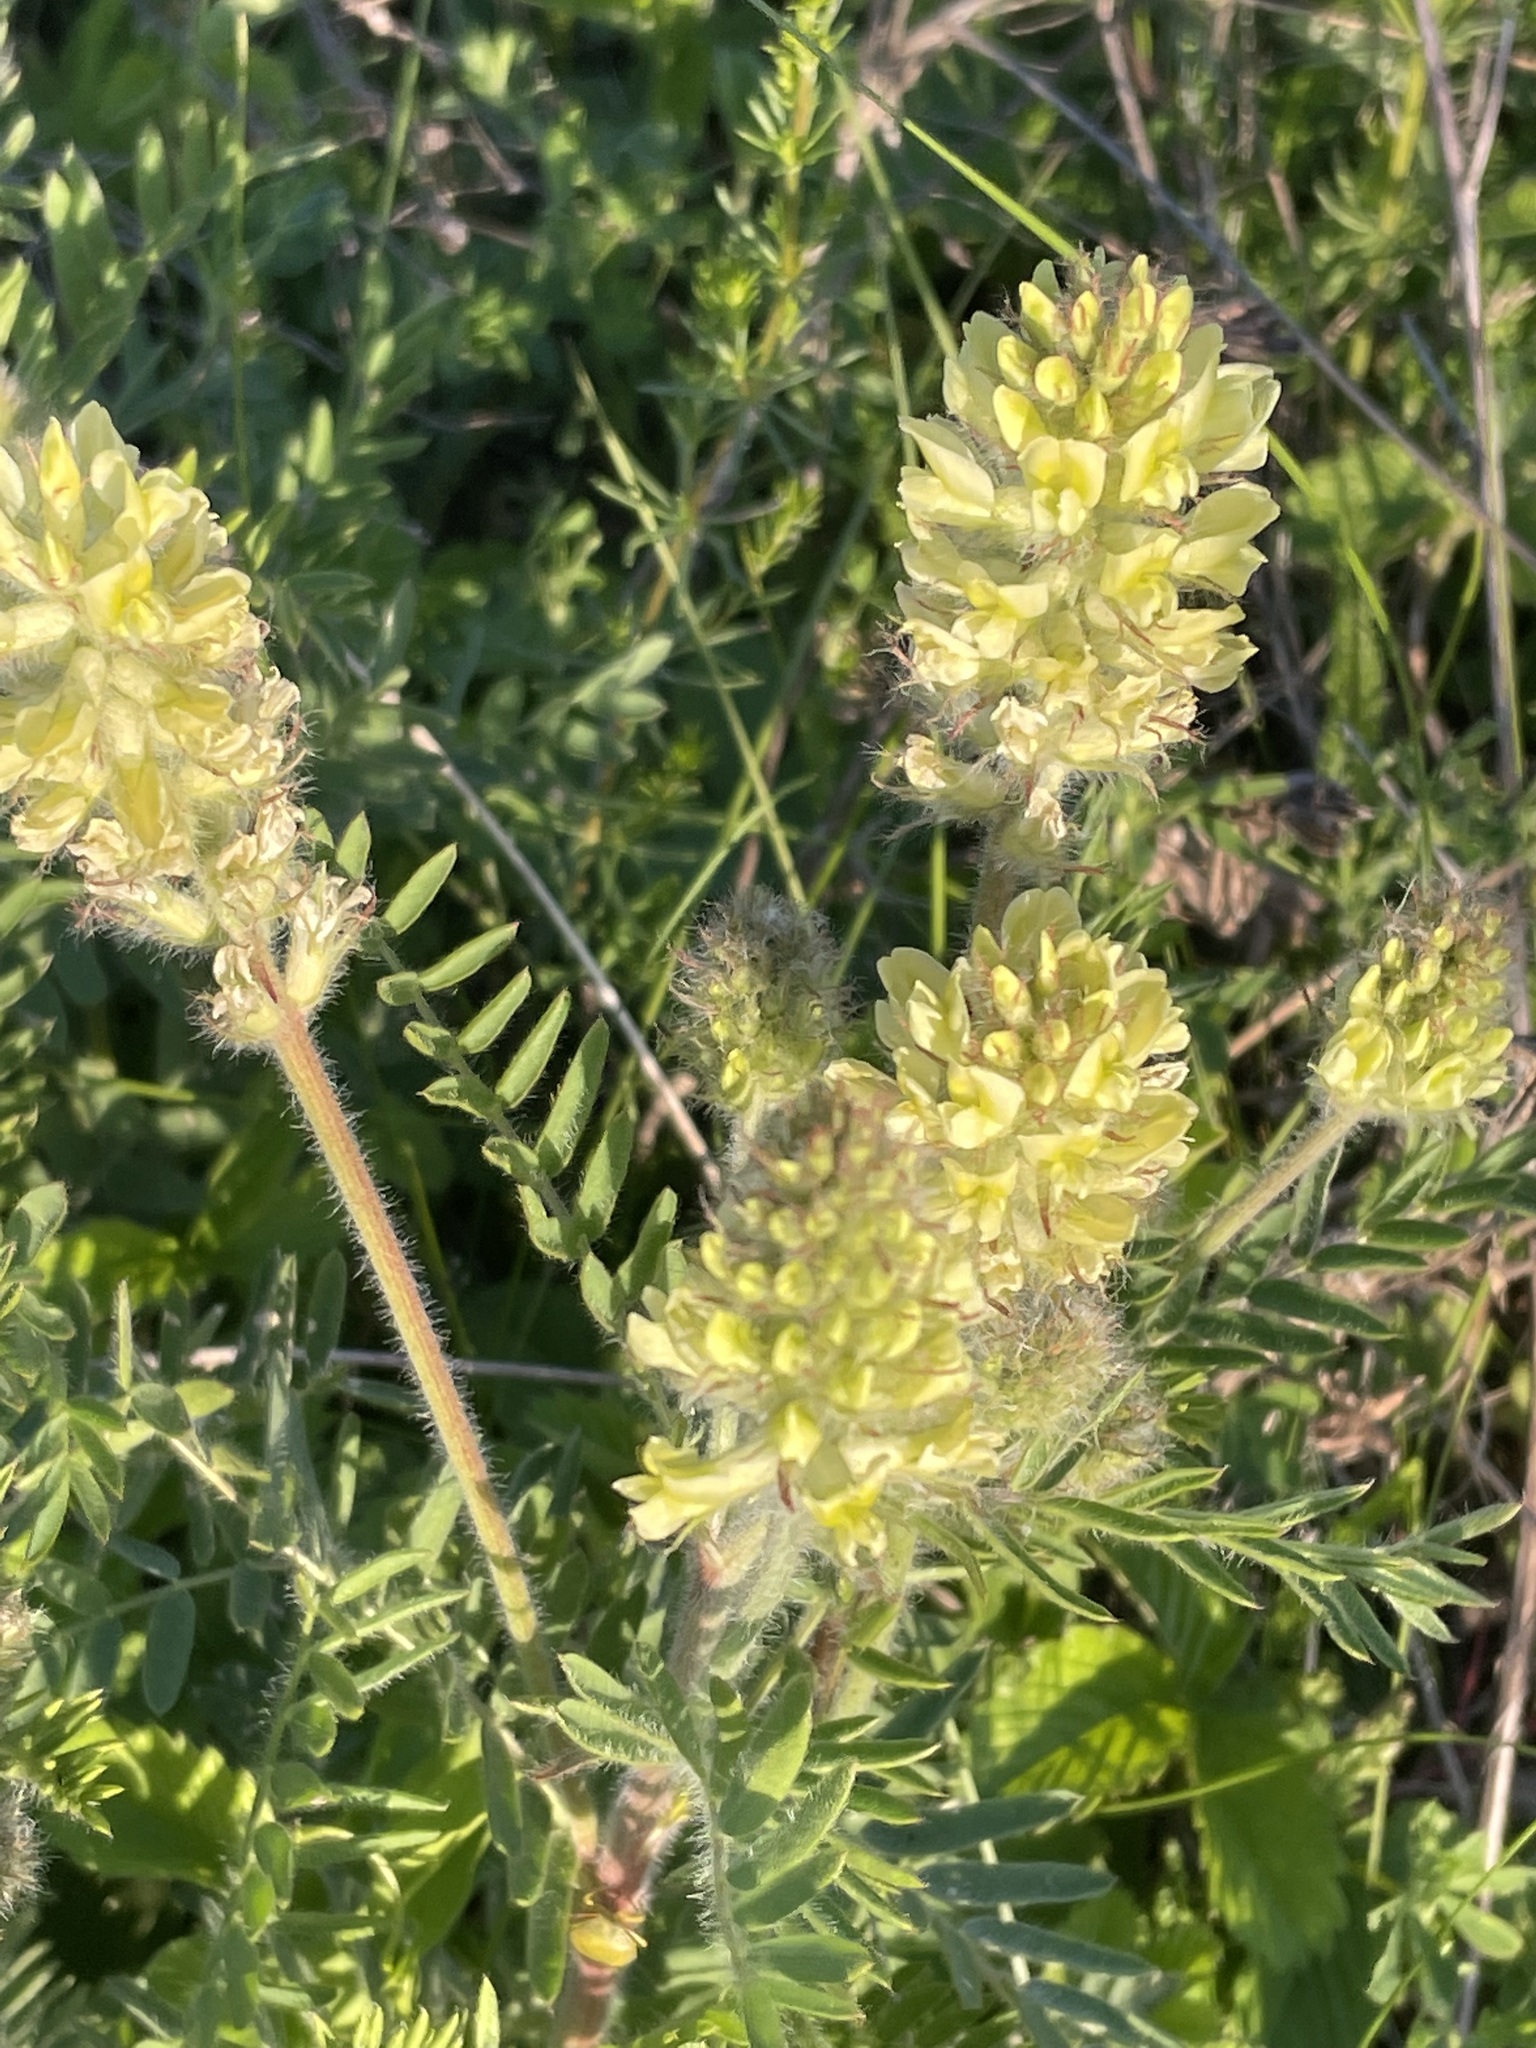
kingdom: Plantae
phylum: Tracheophyta
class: Magnoliopsida
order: Fabales
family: Fabaceae
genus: Oxytropis
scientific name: Oxytropis pilosa
